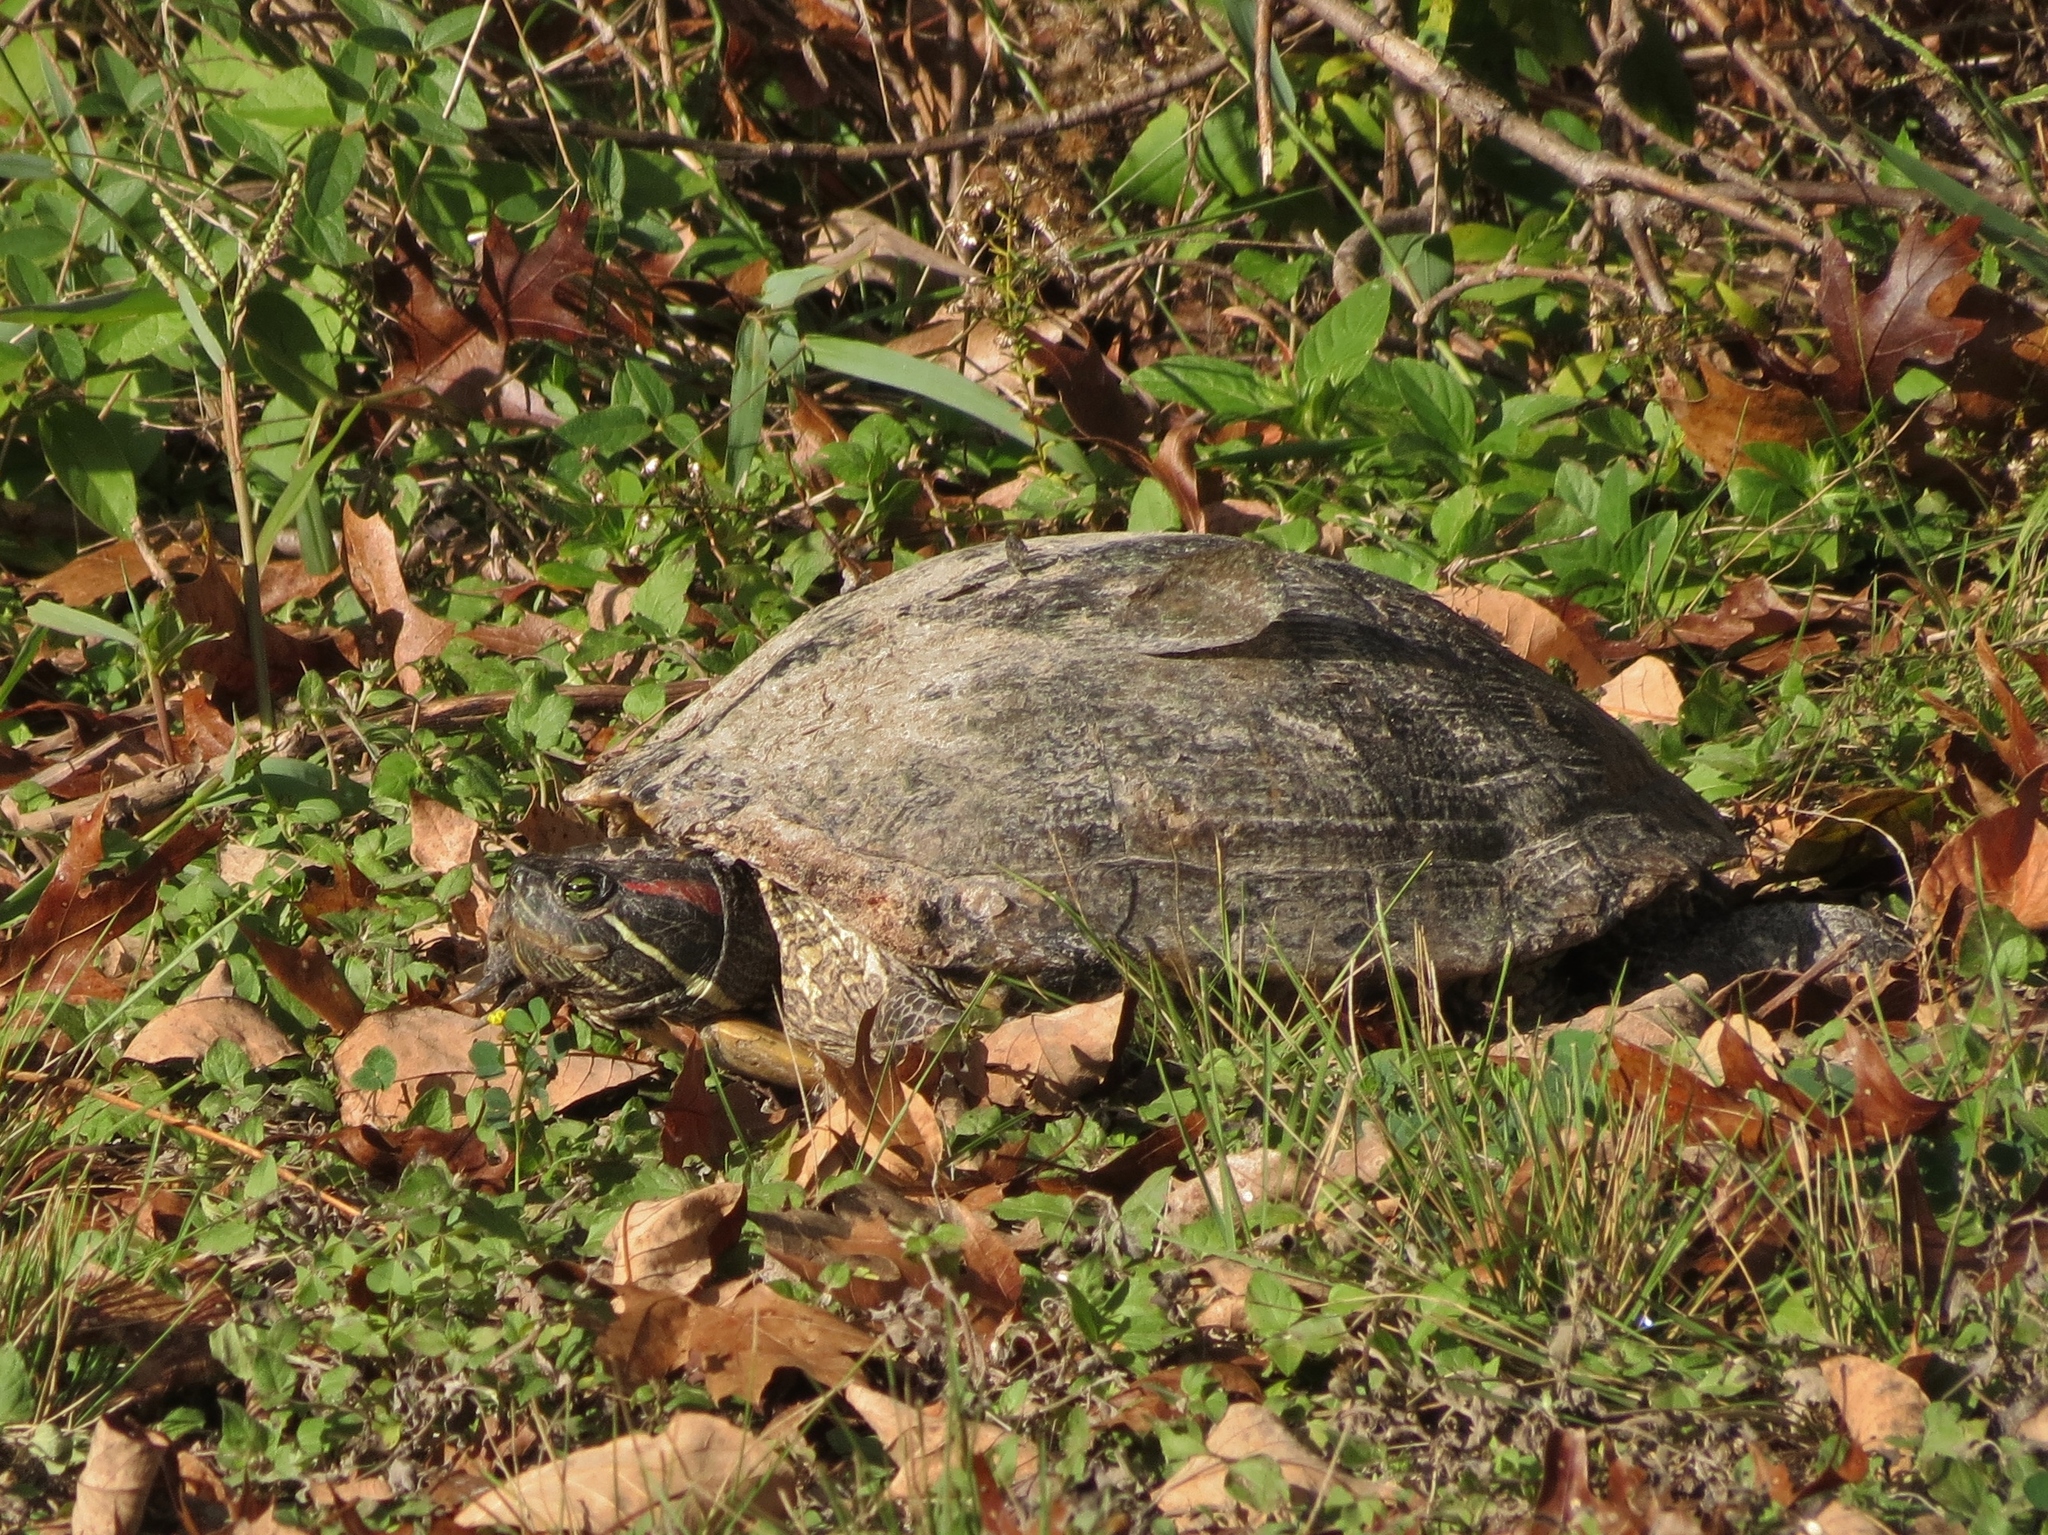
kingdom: Animalia
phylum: Chordata
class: Testudines
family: Emydidae
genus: Trachemys
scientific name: Trachemys scripta
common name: Slider
